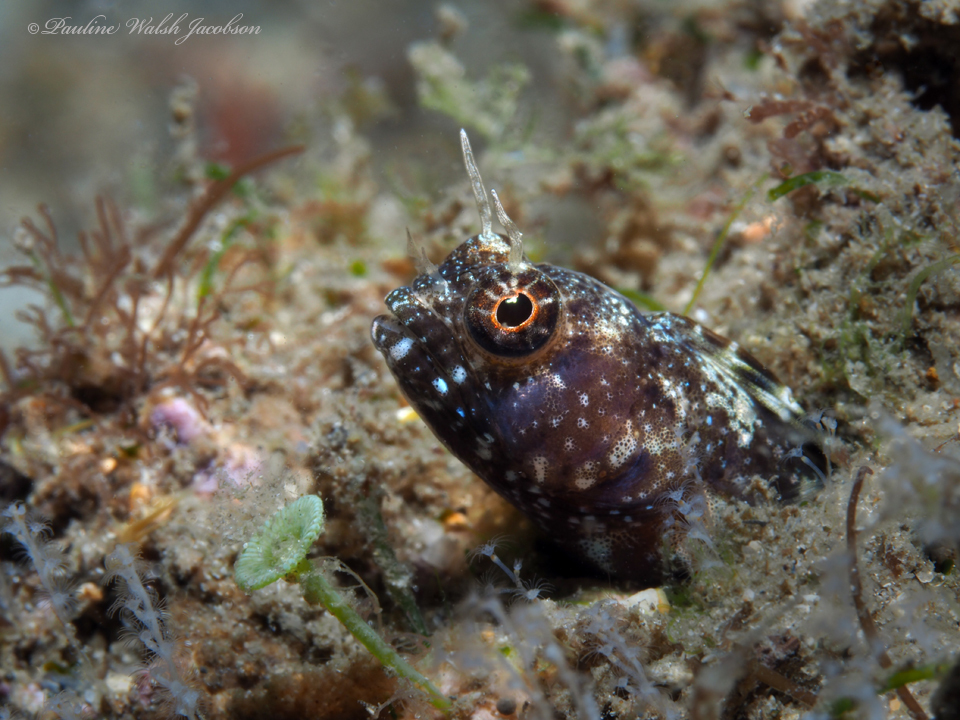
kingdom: Animalia
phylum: Chordata
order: Perciformes
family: Chaenopsidae
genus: Emblemaria
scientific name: Emblemaria pandionis
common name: Sailfin blenny
